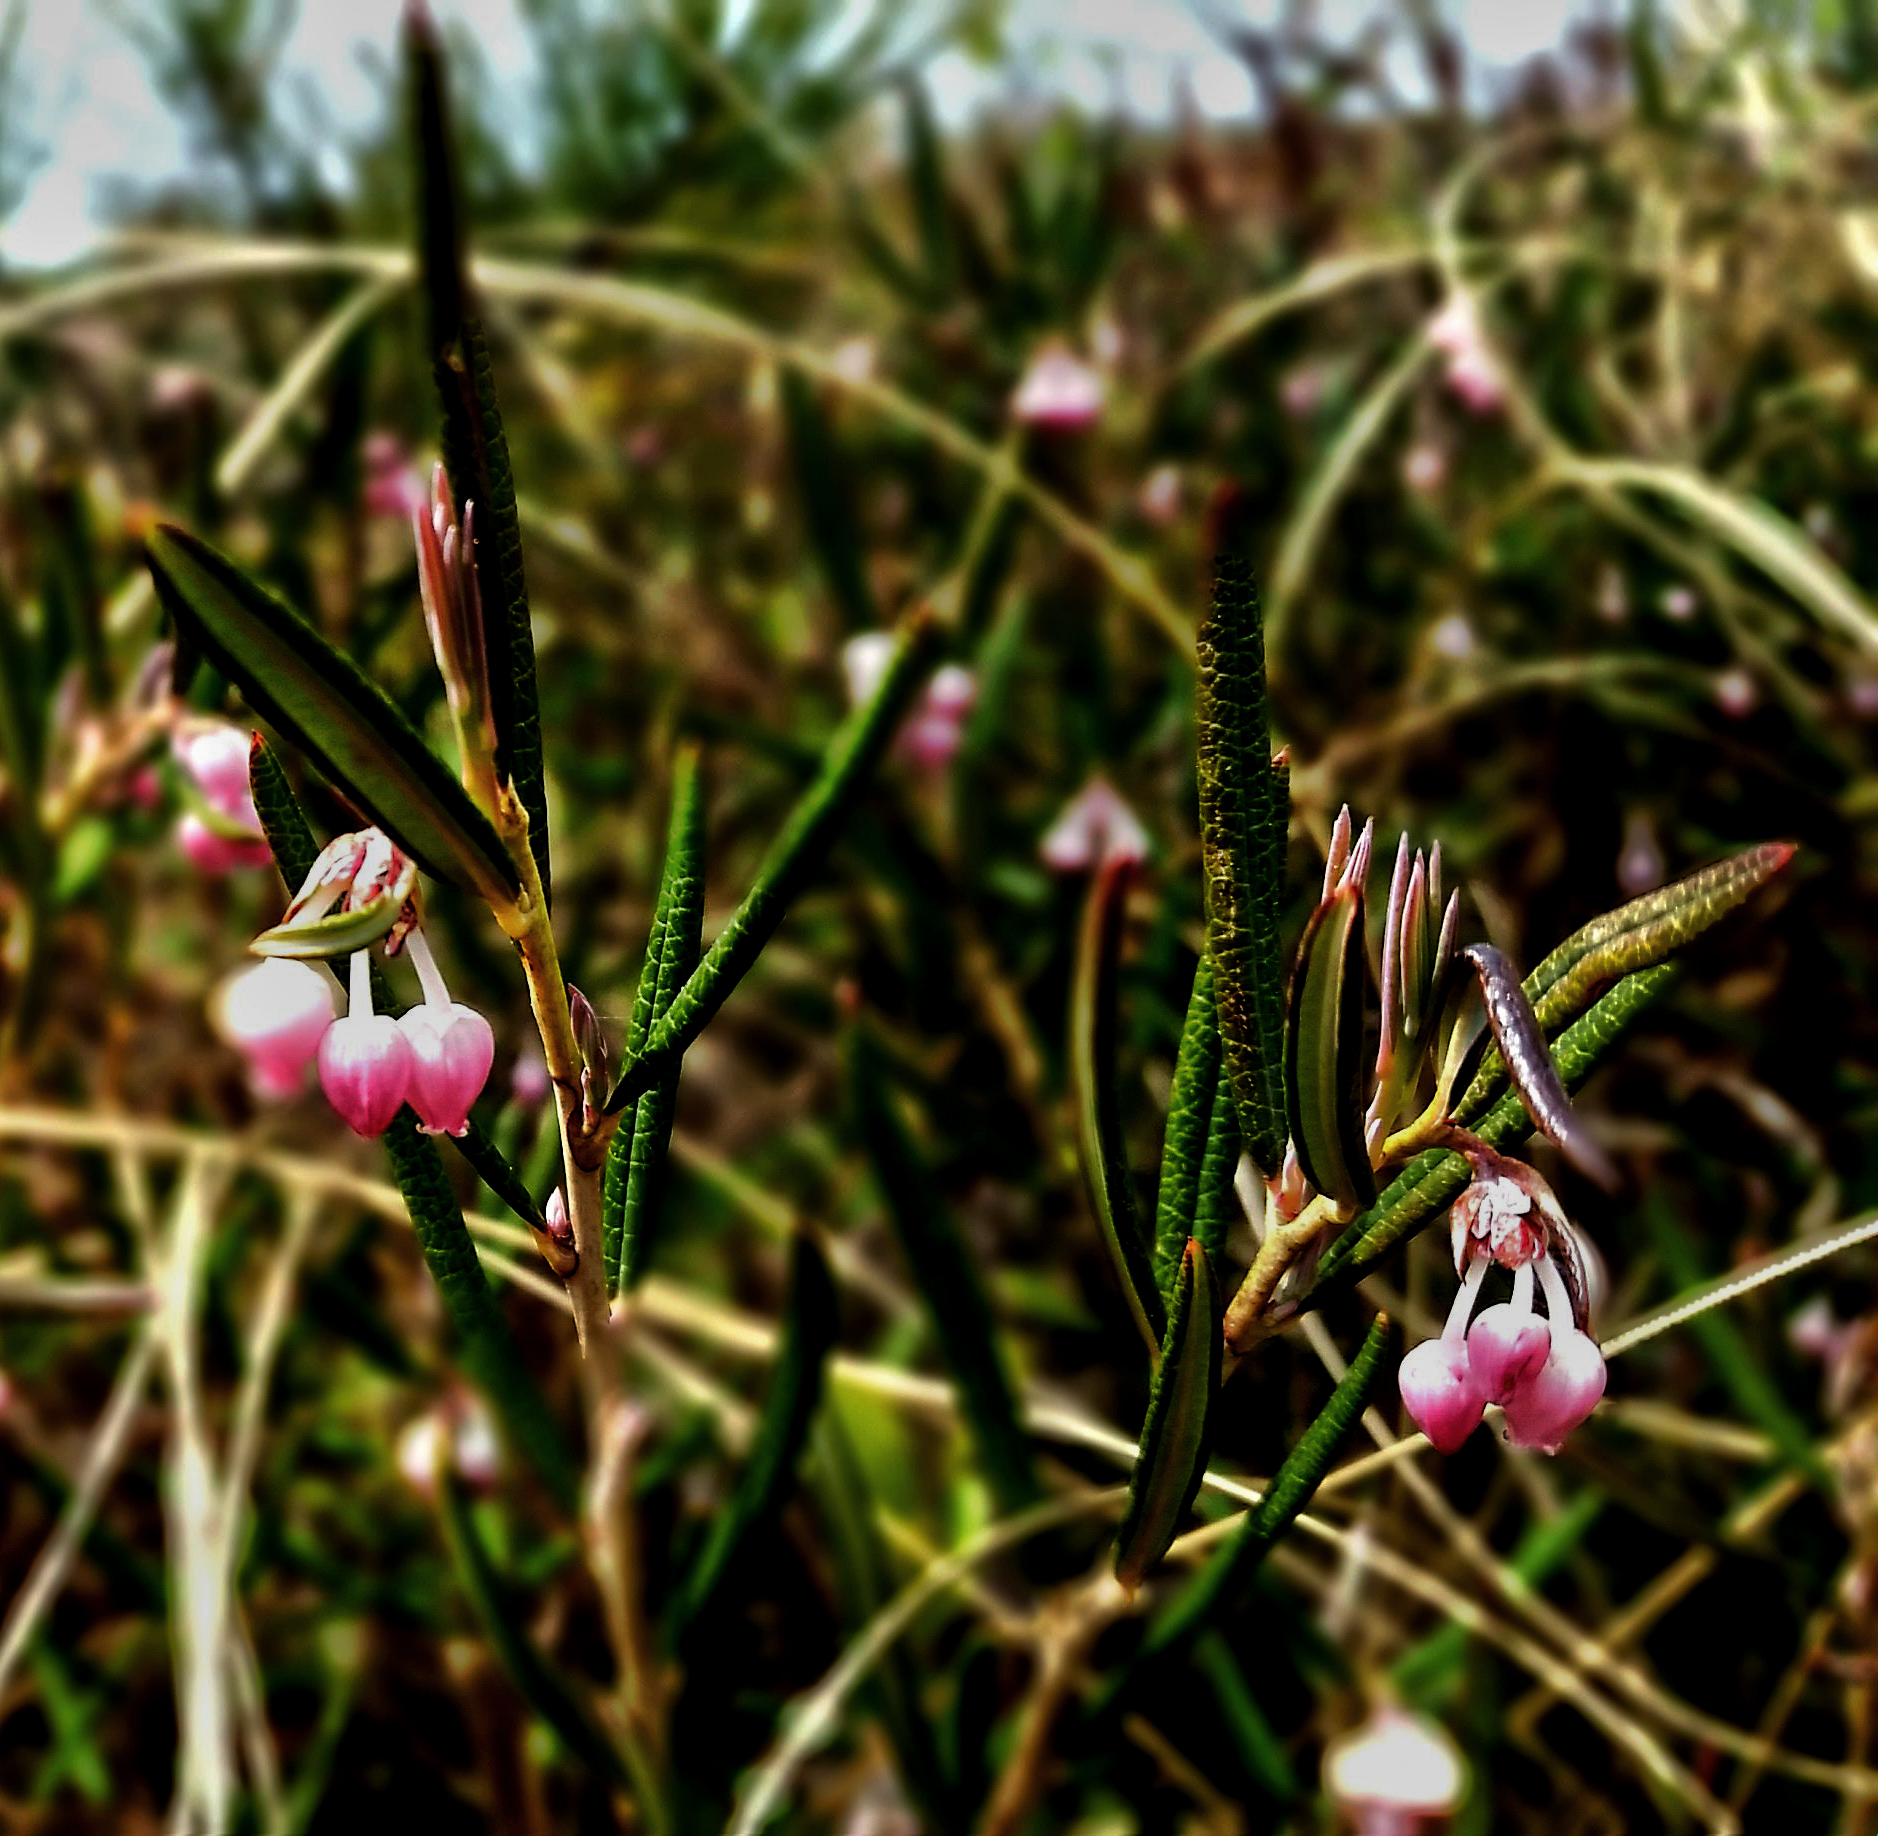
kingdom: Plantae
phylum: Tracheophyta
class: Magnoliopsida
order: Ericales
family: Ericaceae
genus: Andromeda
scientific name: Andromeda polifolia
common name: Bog-rosemary
